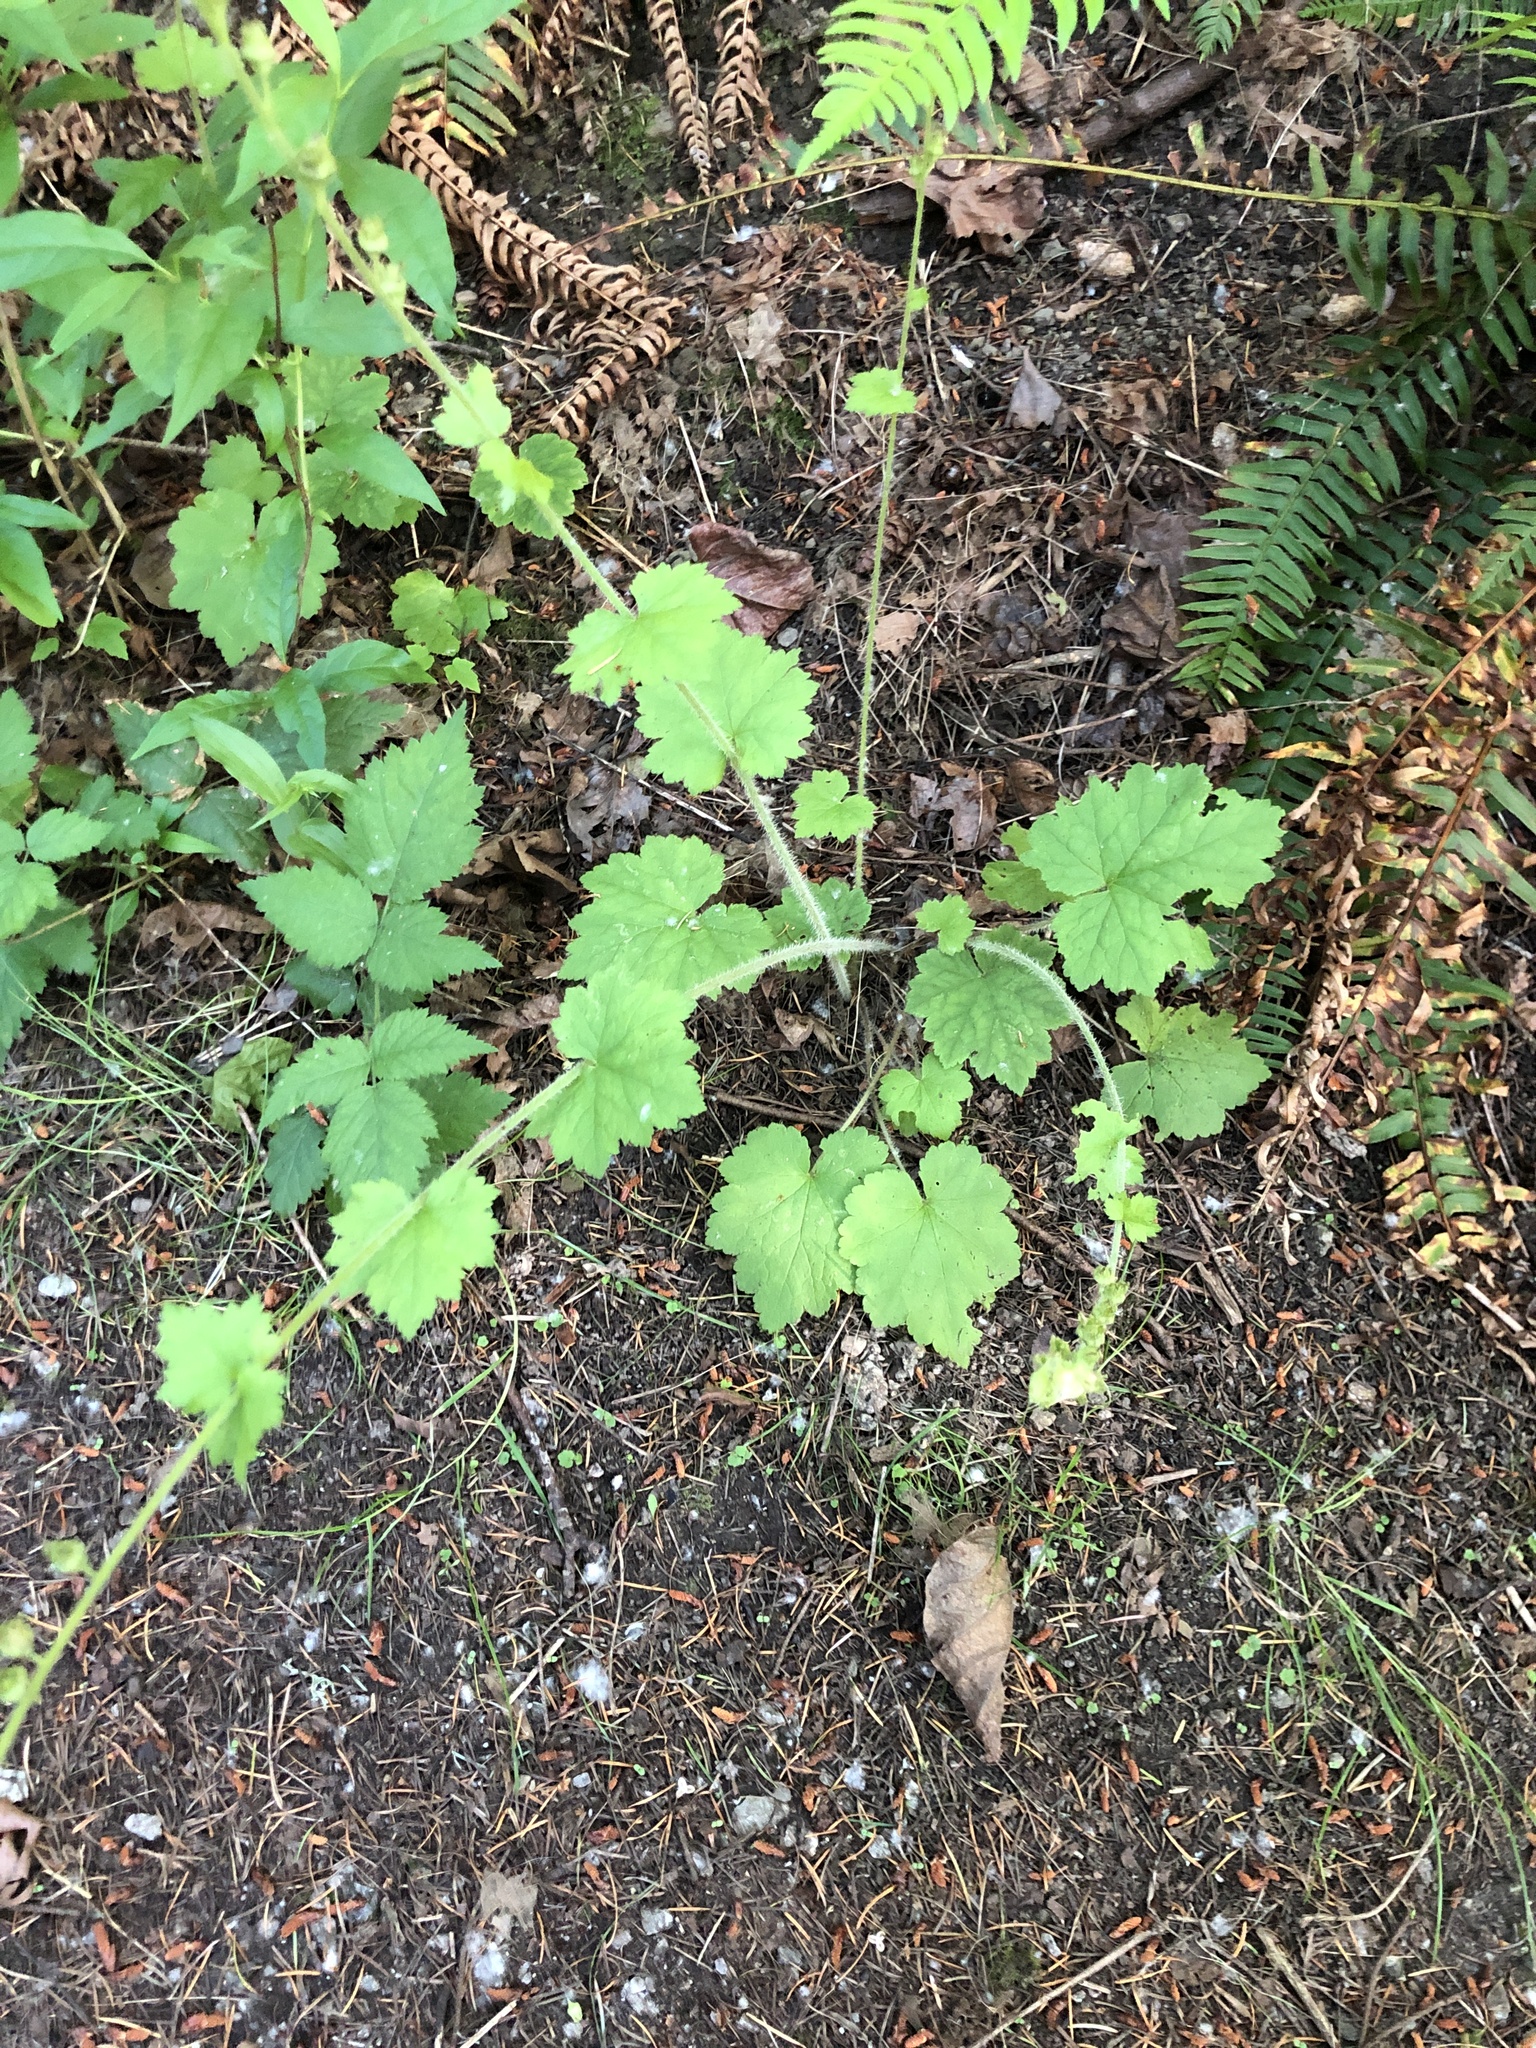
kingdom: Plantae
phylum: Tracheophyta
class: Magnoliopsida
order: Saxifragales
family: Saxifragaceae
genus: Tellima
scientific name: Tellima grandiflora
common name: Fringecups
